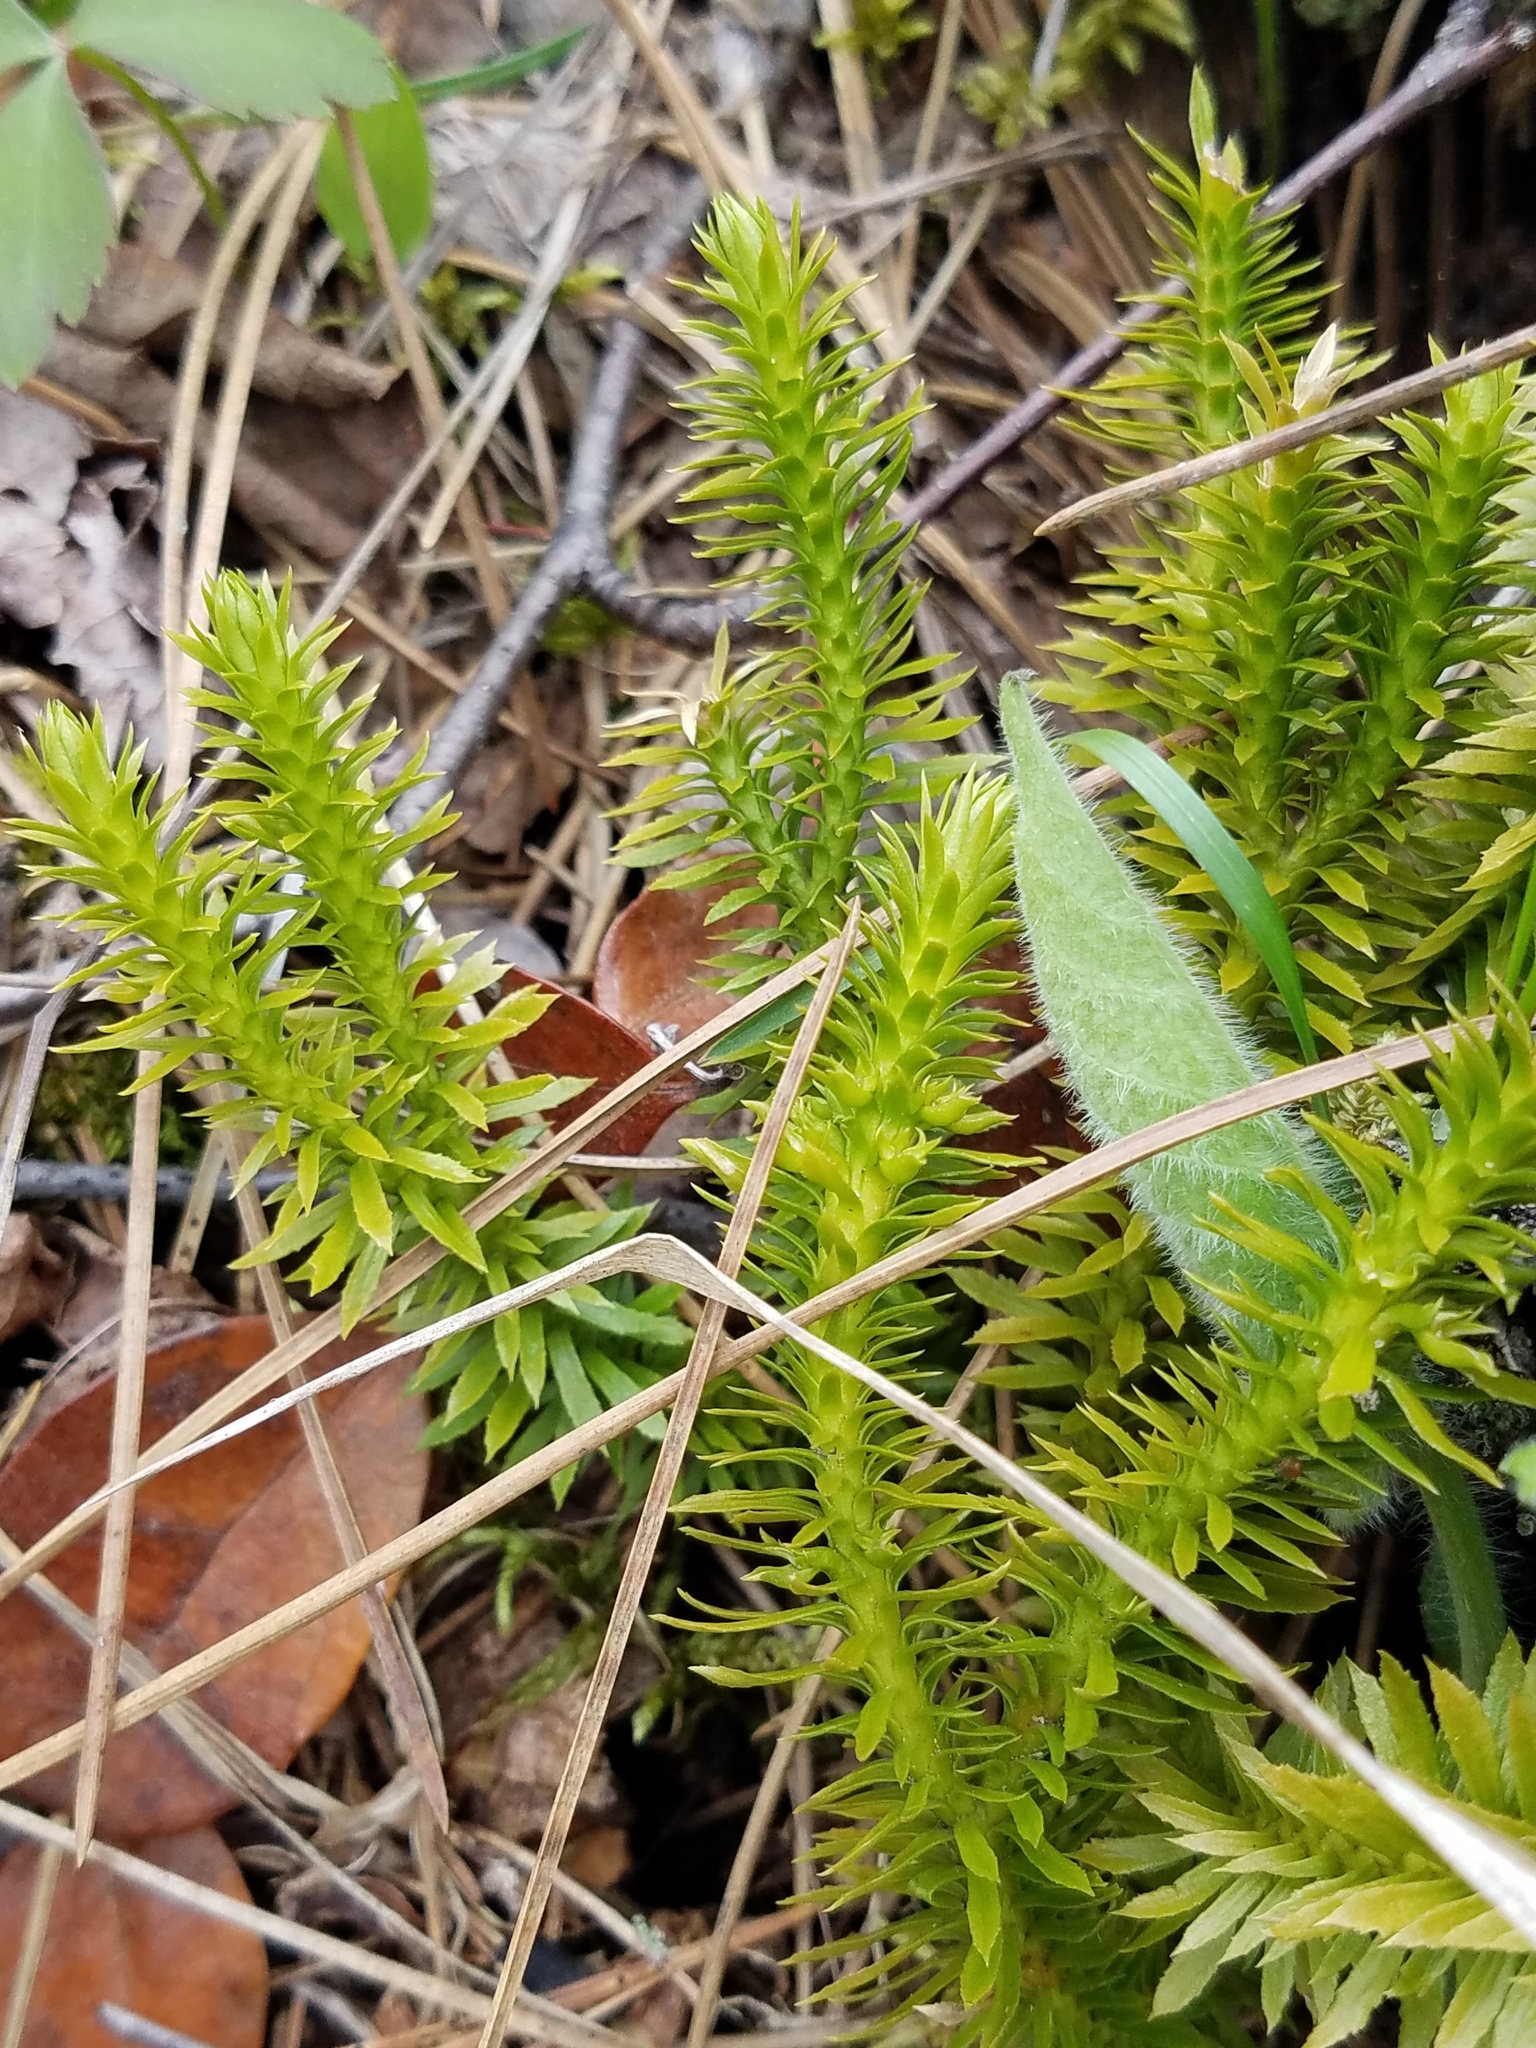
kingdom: Plantae
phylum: Tracheophyta
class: Lycopodiopsida
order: Lycopodiales
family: Lycopodiaceae
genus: Huperzia
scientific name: Huperzia lucidula
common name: Shining clubmoss
